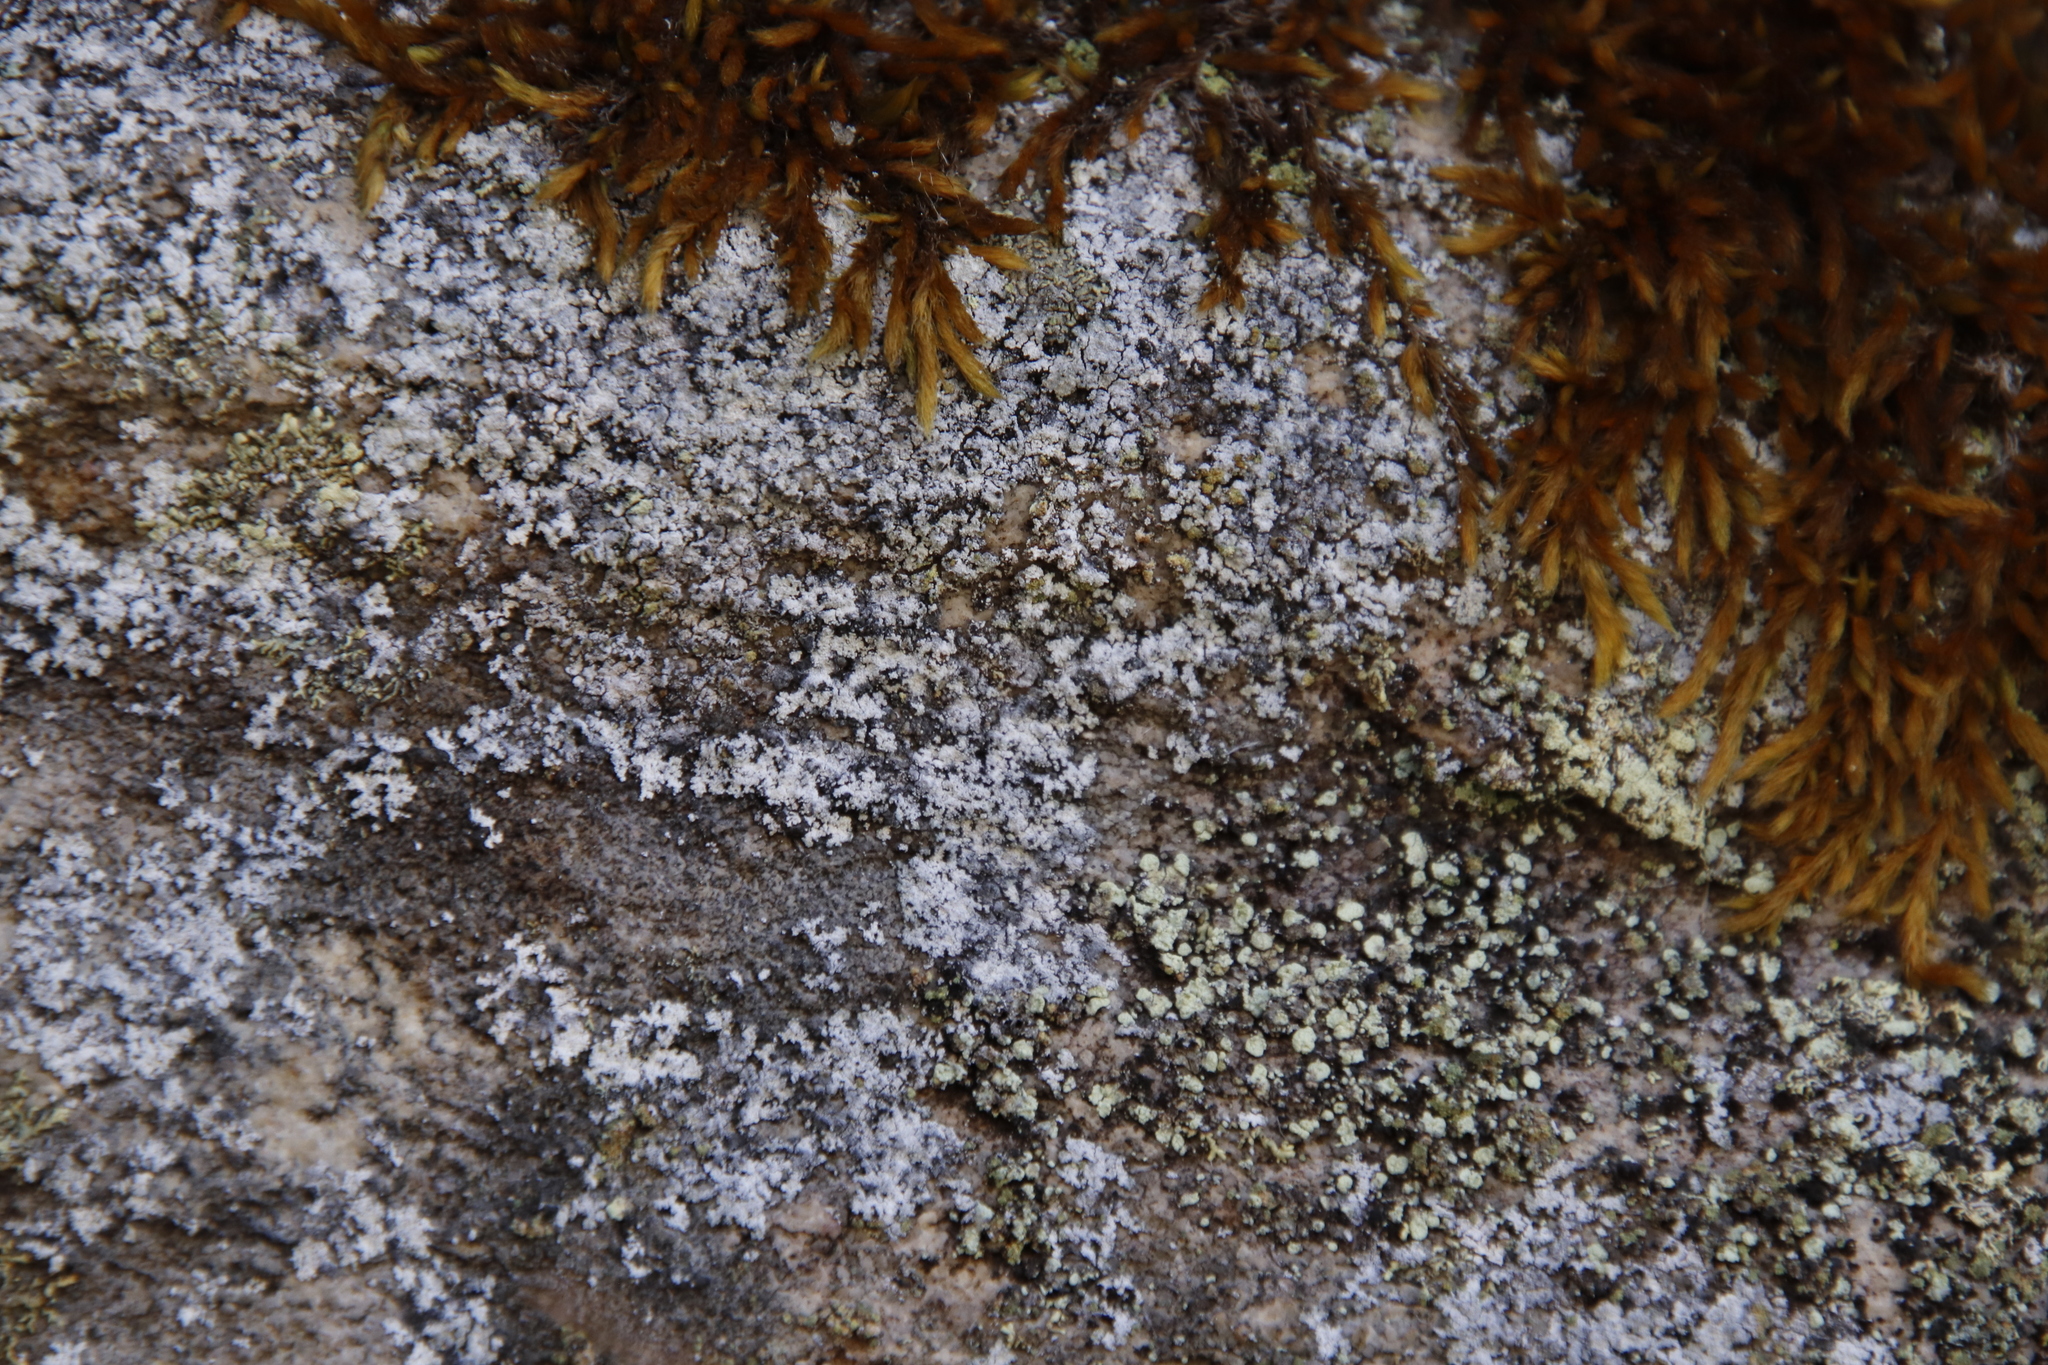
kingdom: Plantae
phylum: Bryophyta
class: Bryopsida
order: Bartramiales
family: Bartramiaceae
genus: Breutelia
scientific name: Breutelia substricta
